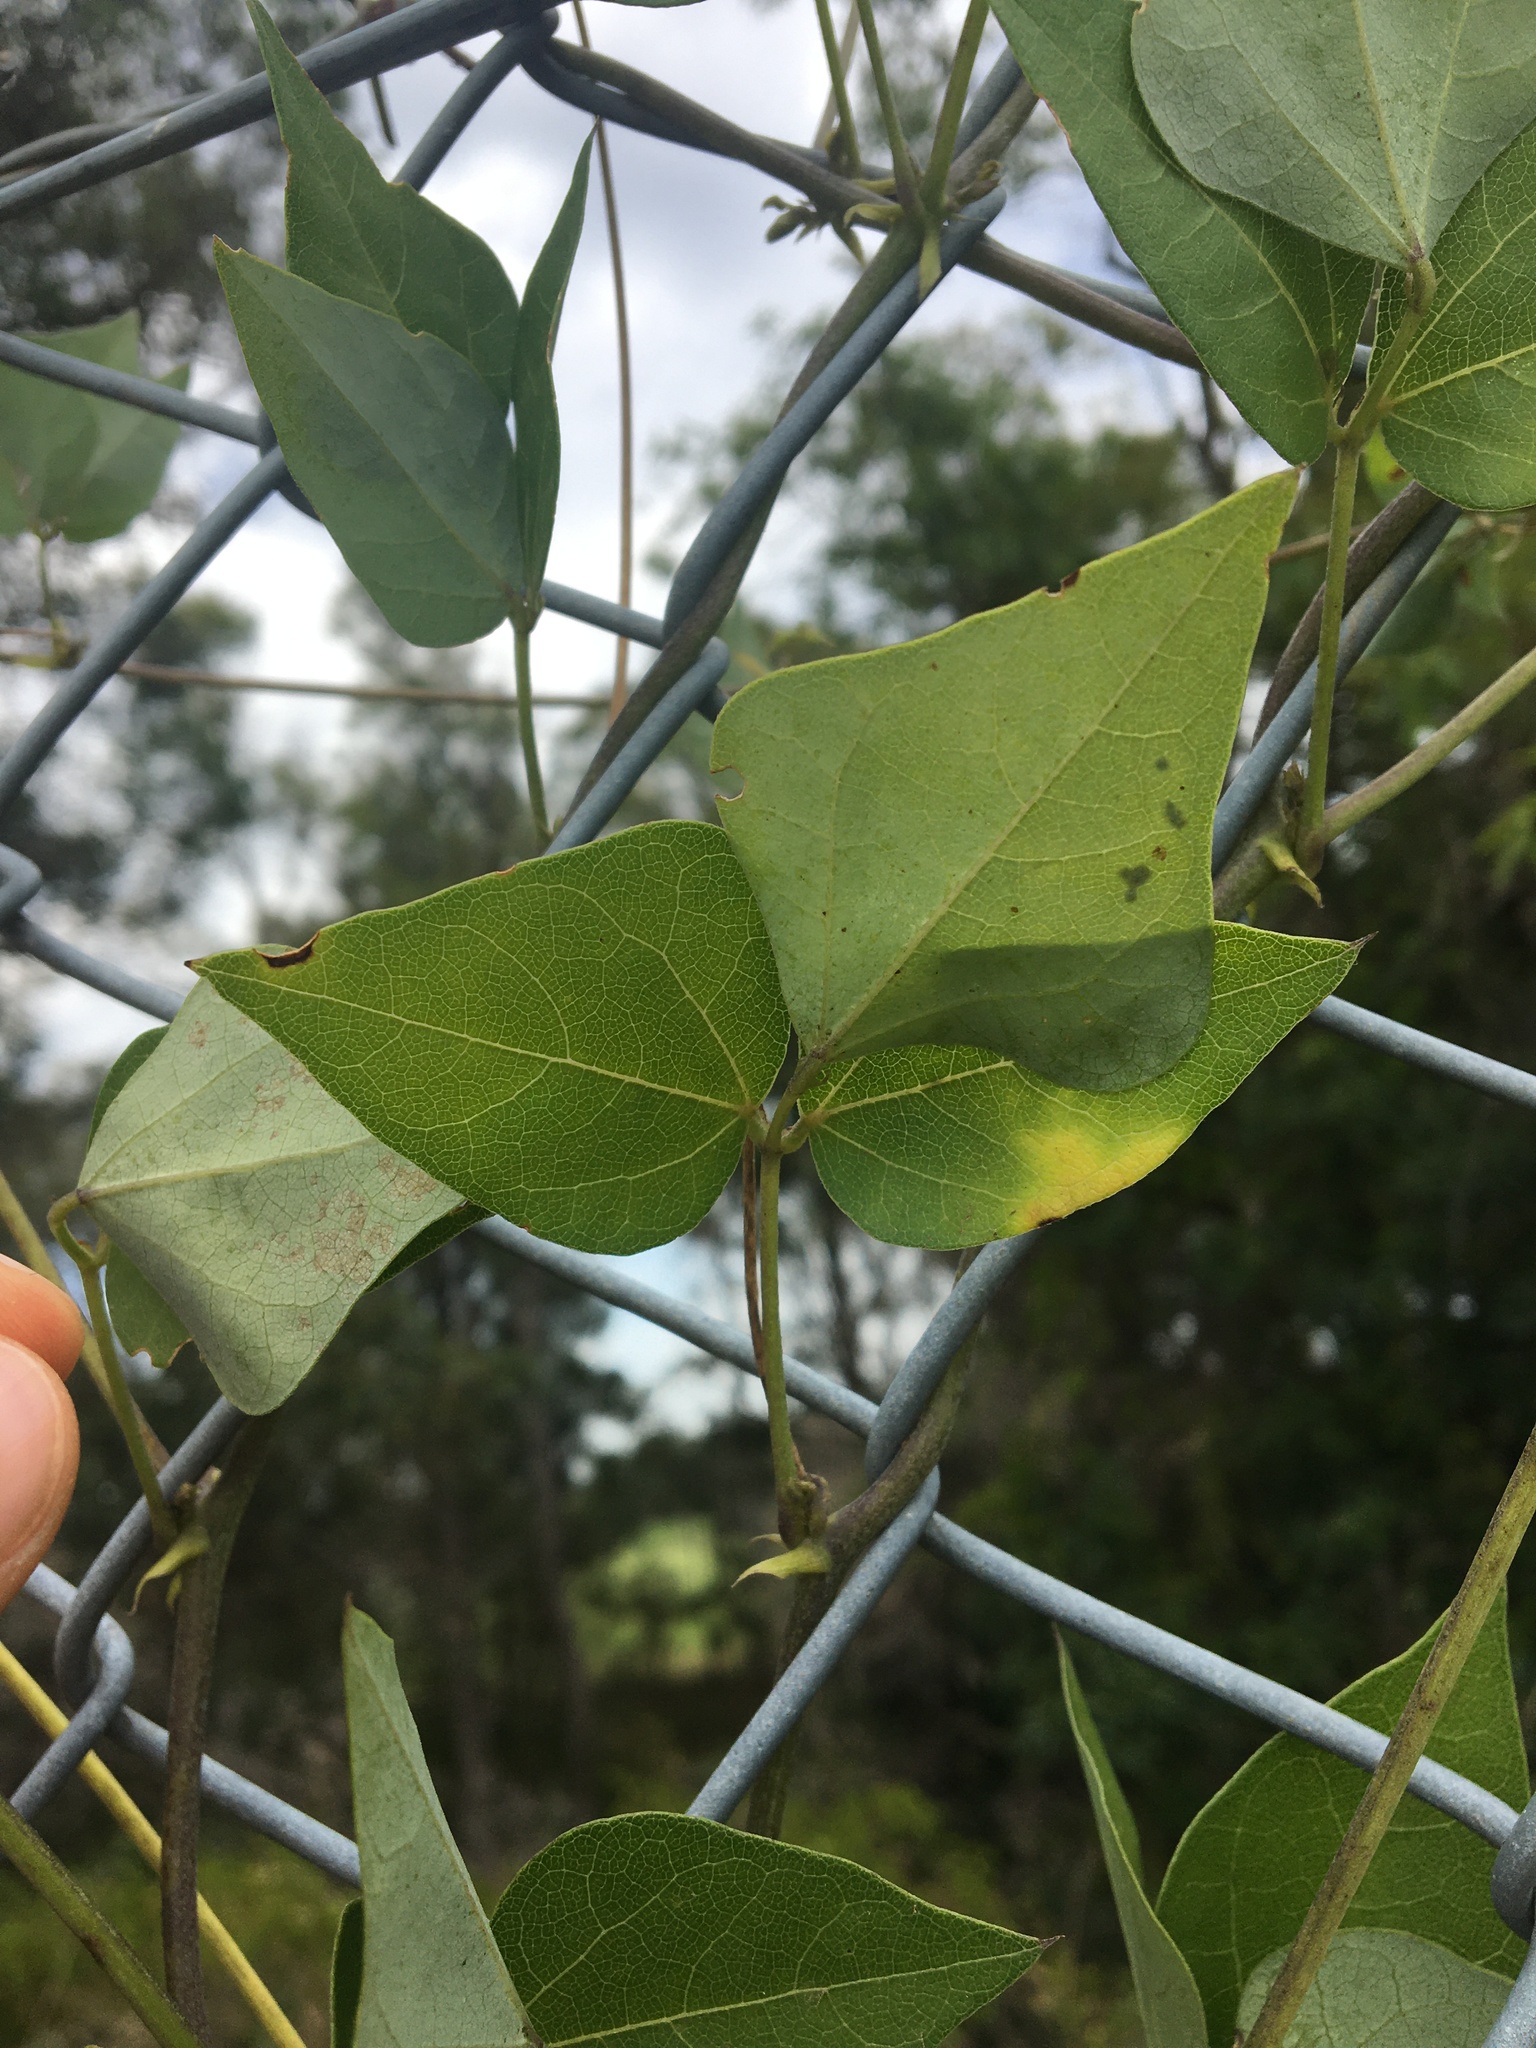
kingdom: Plantae
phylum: Tracheophyta
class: Magnoliopsida
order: Fabales
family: Fabaceae
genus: Dipogon
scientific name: Dipogon lignosus
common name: Okie bean
